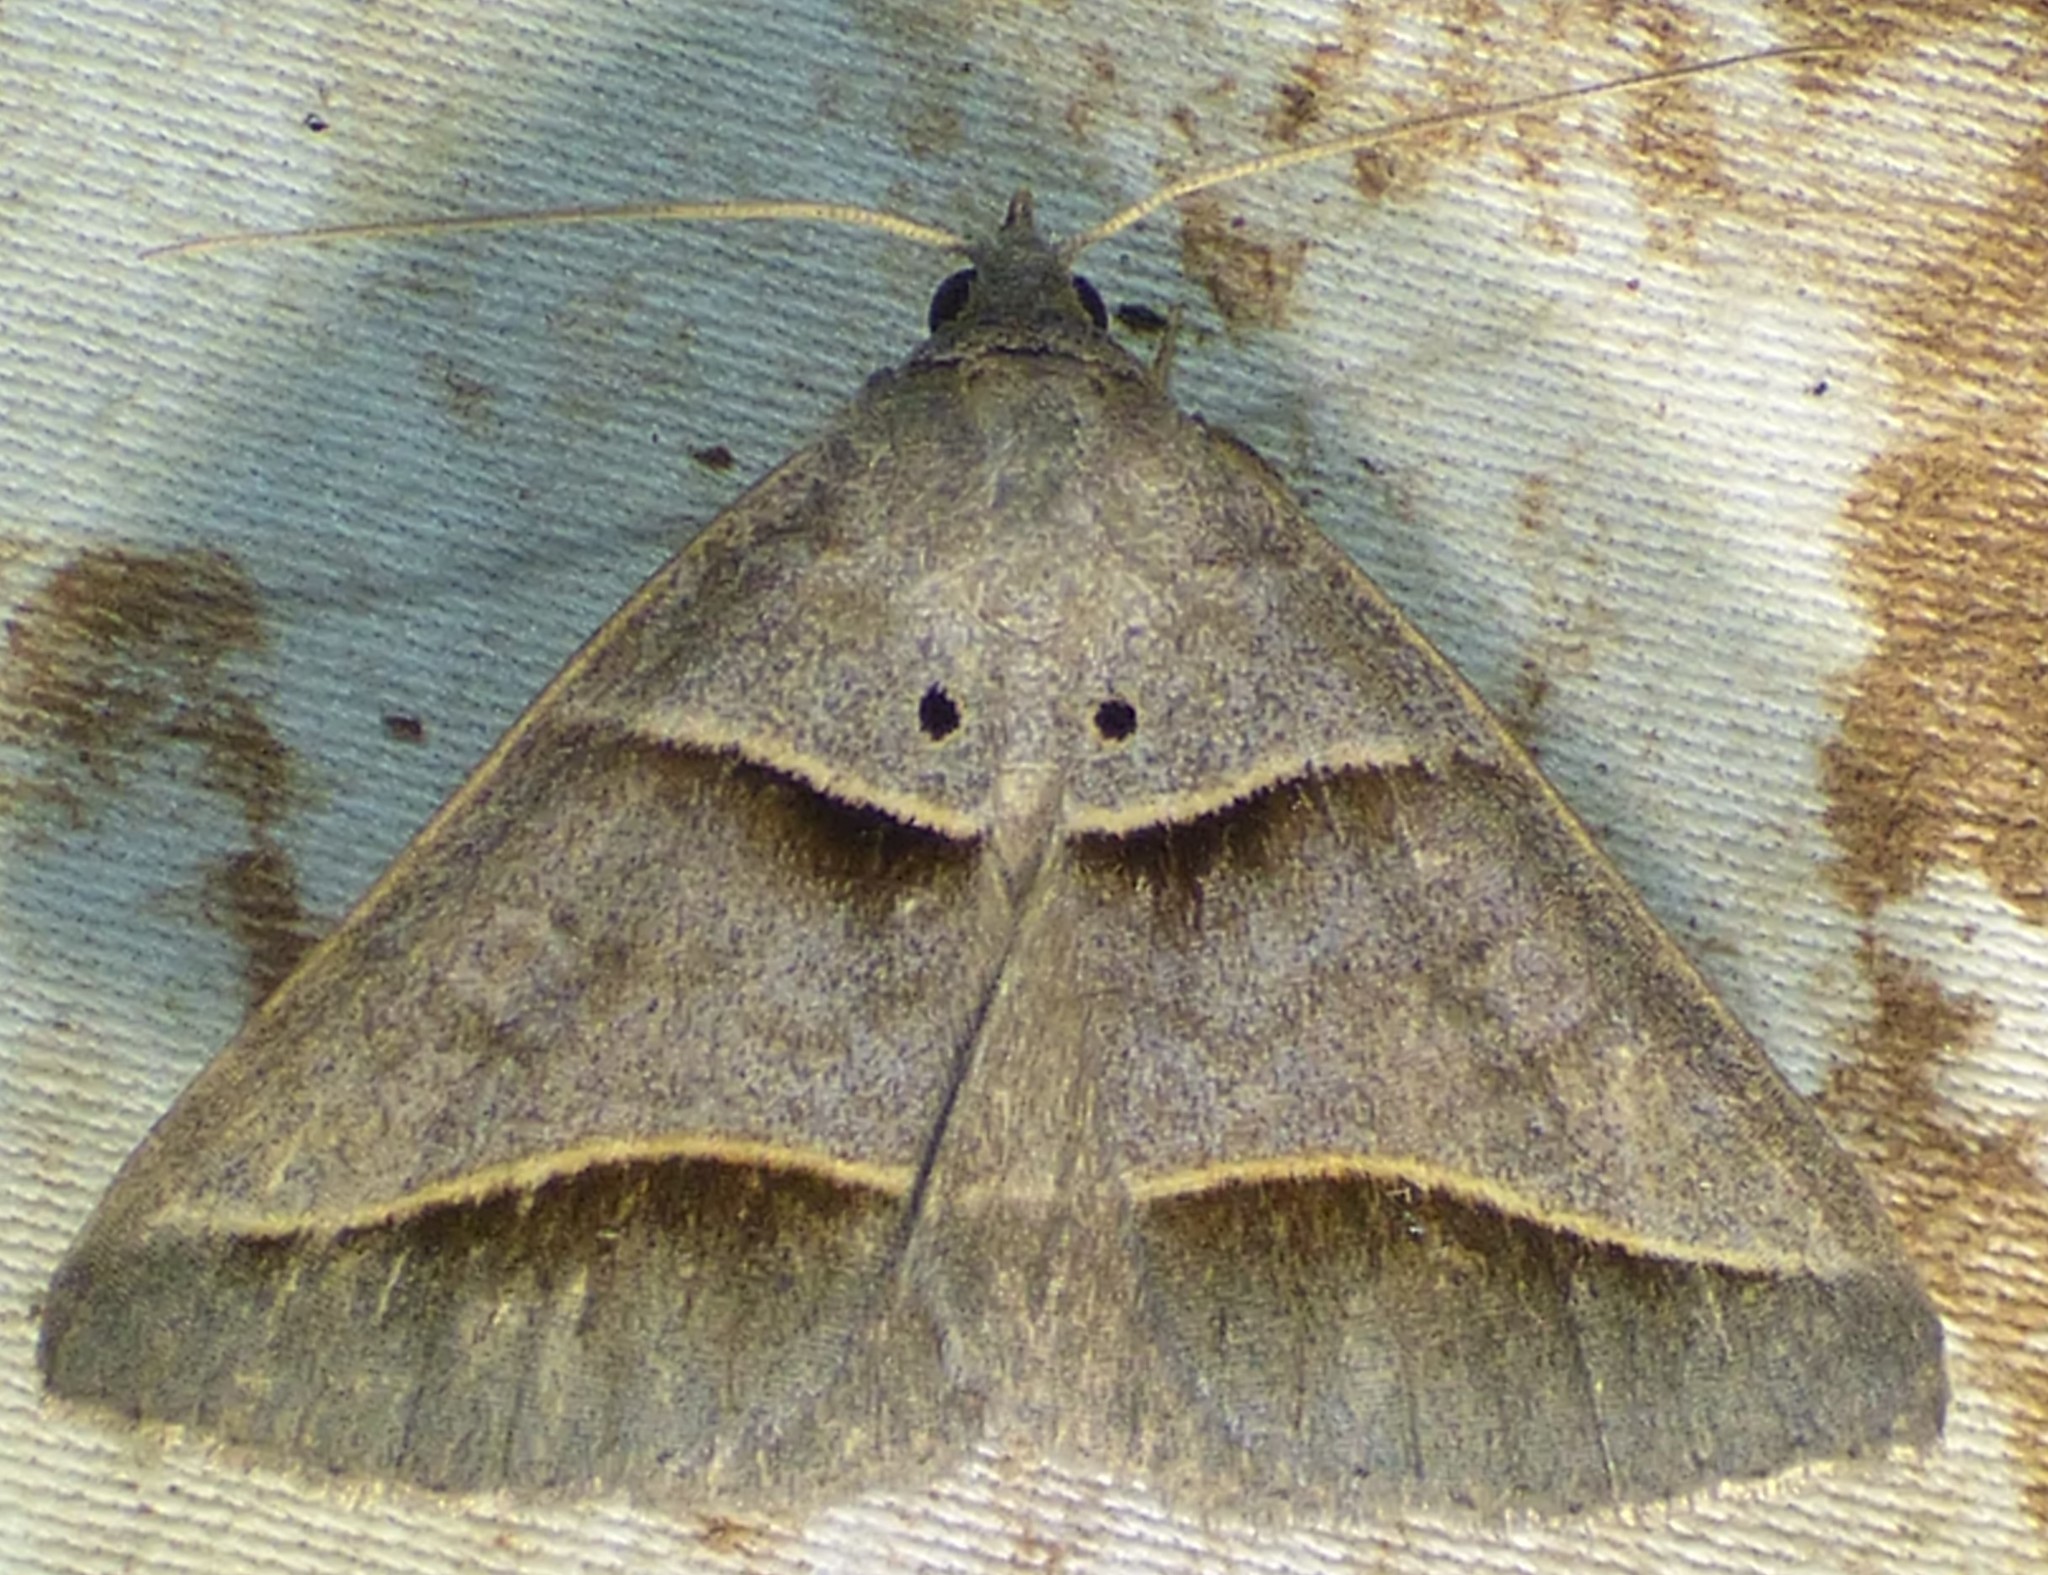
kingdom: Animalia
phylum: Arthropoda
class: Insecta
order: Lepidoptera
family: Erebidae
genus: Ptichodis
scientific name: Ptichodis herbarum
